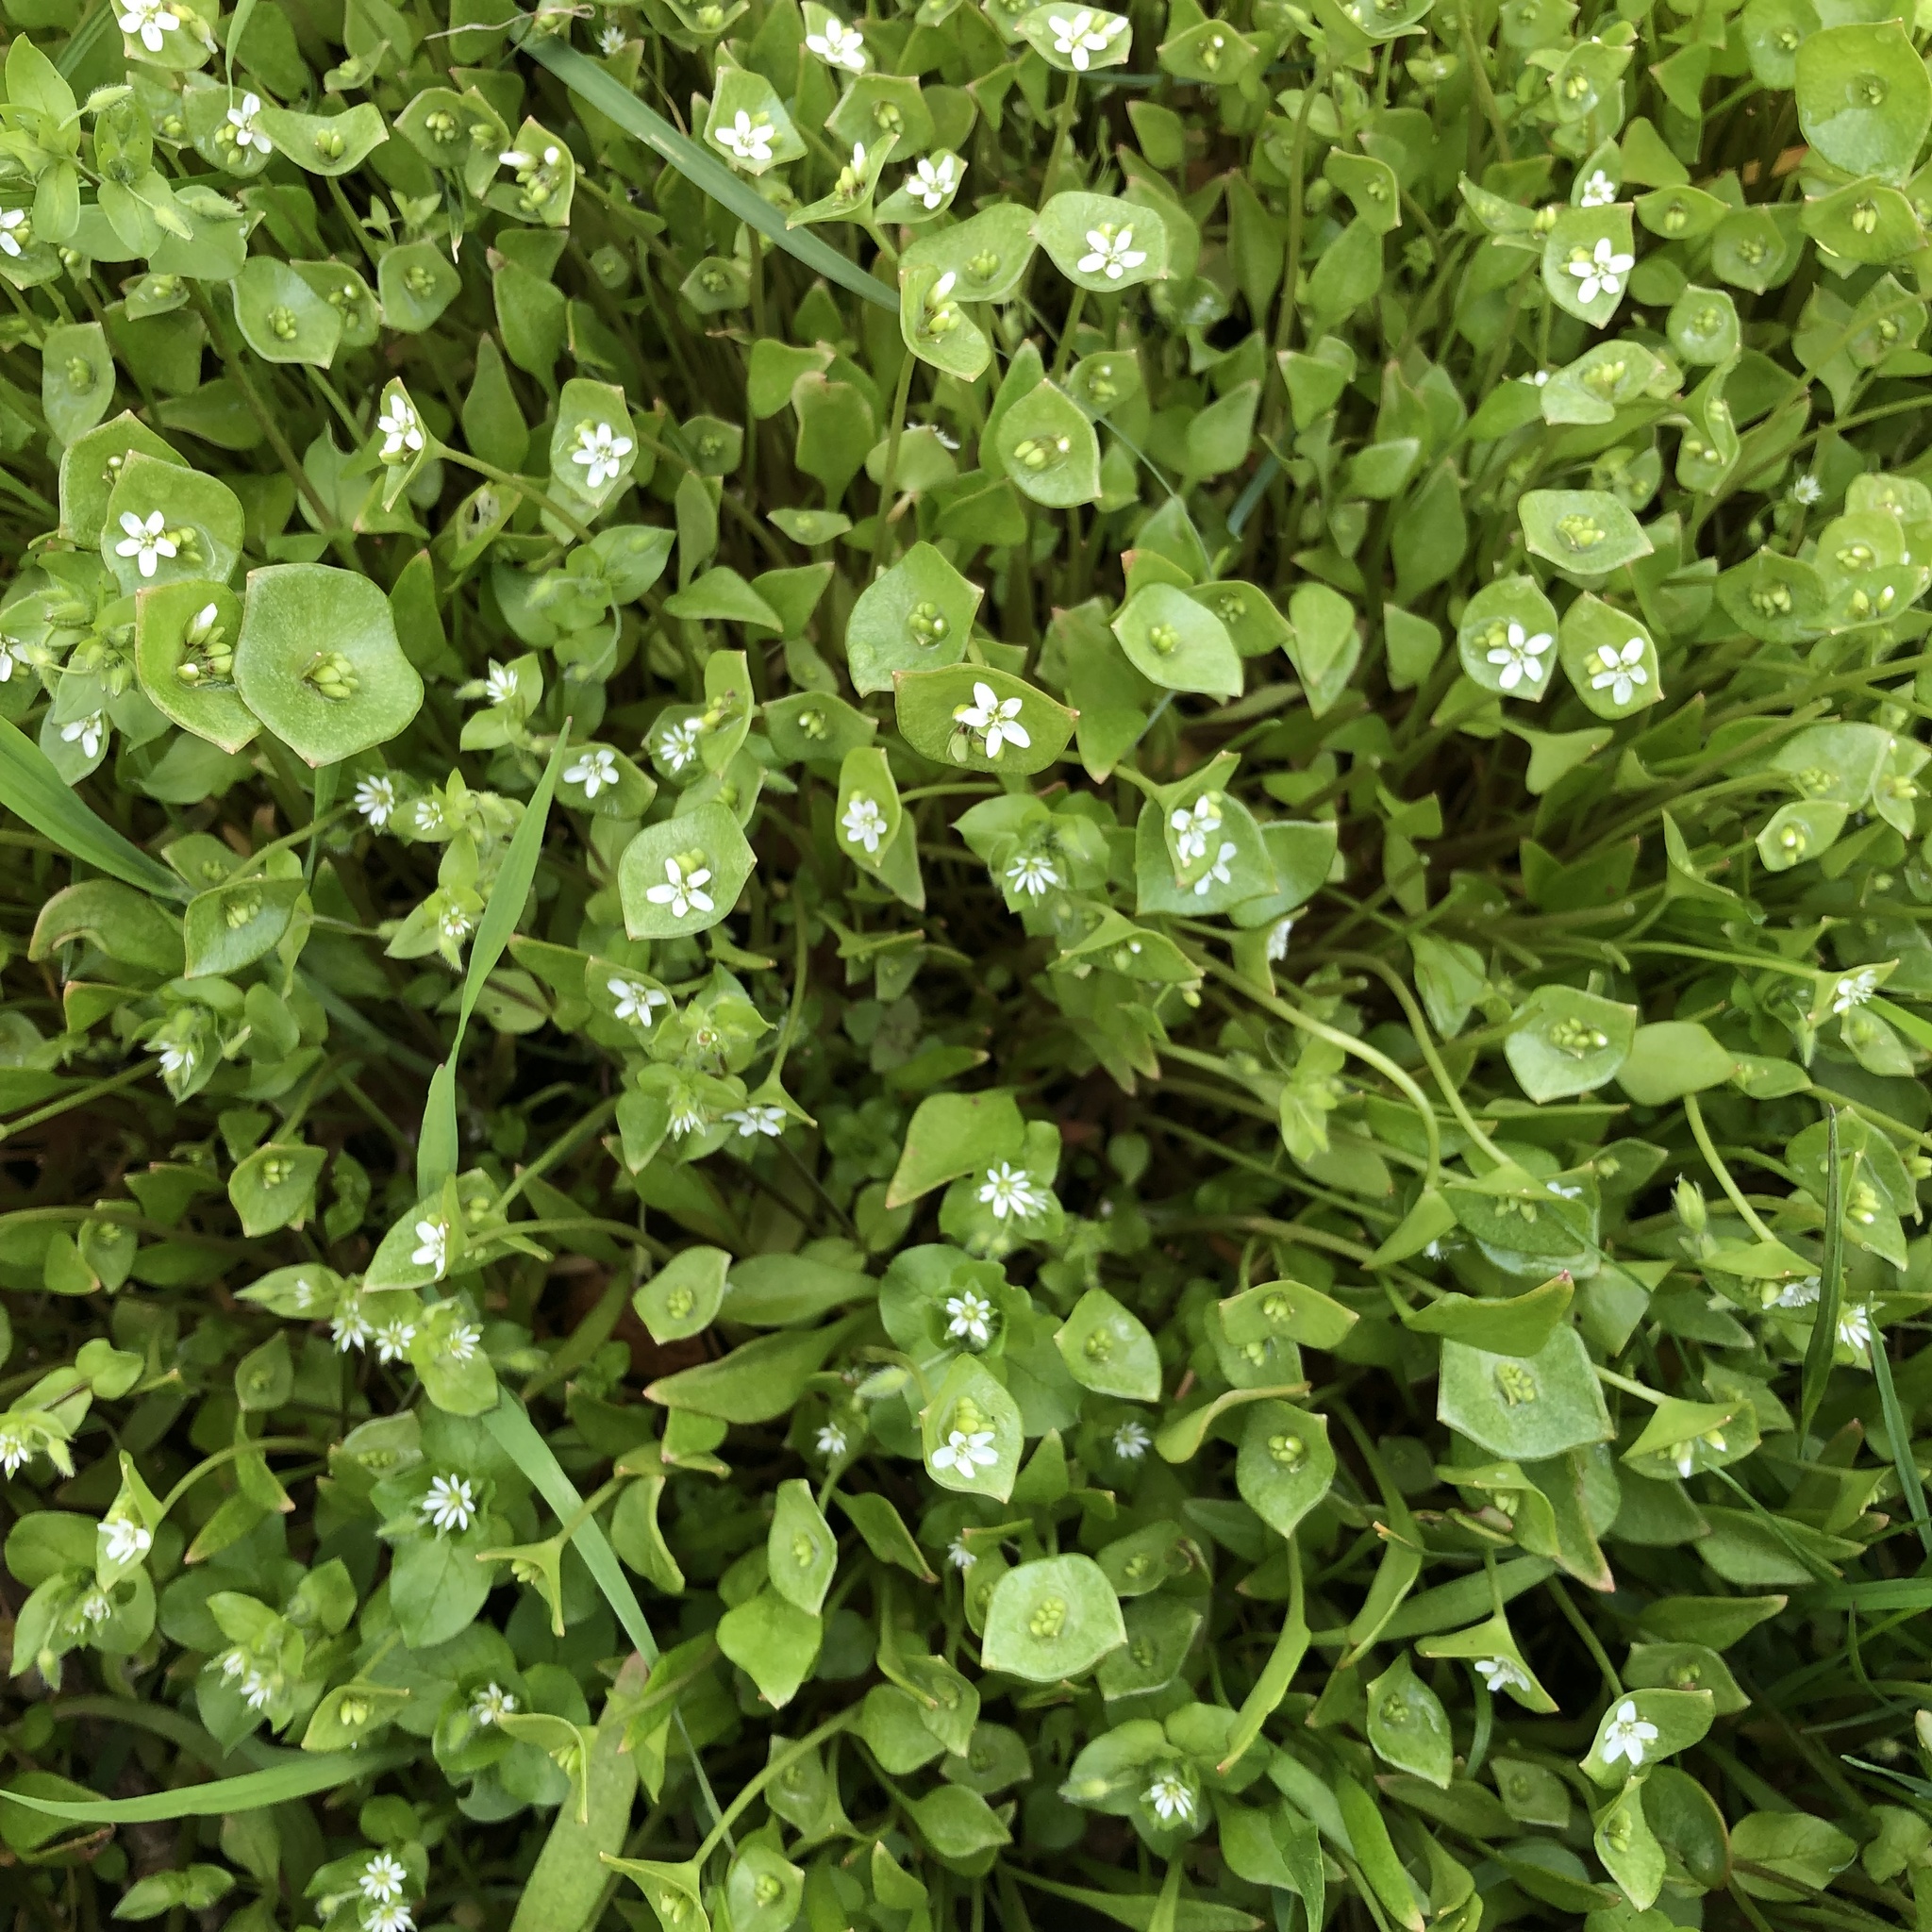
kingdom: Plantae
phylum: Tracheophyta
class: Magnoliopsida
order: Caryophyllales
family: Montiaceae
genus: Claytonia
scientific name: Claytonia perfoliata
